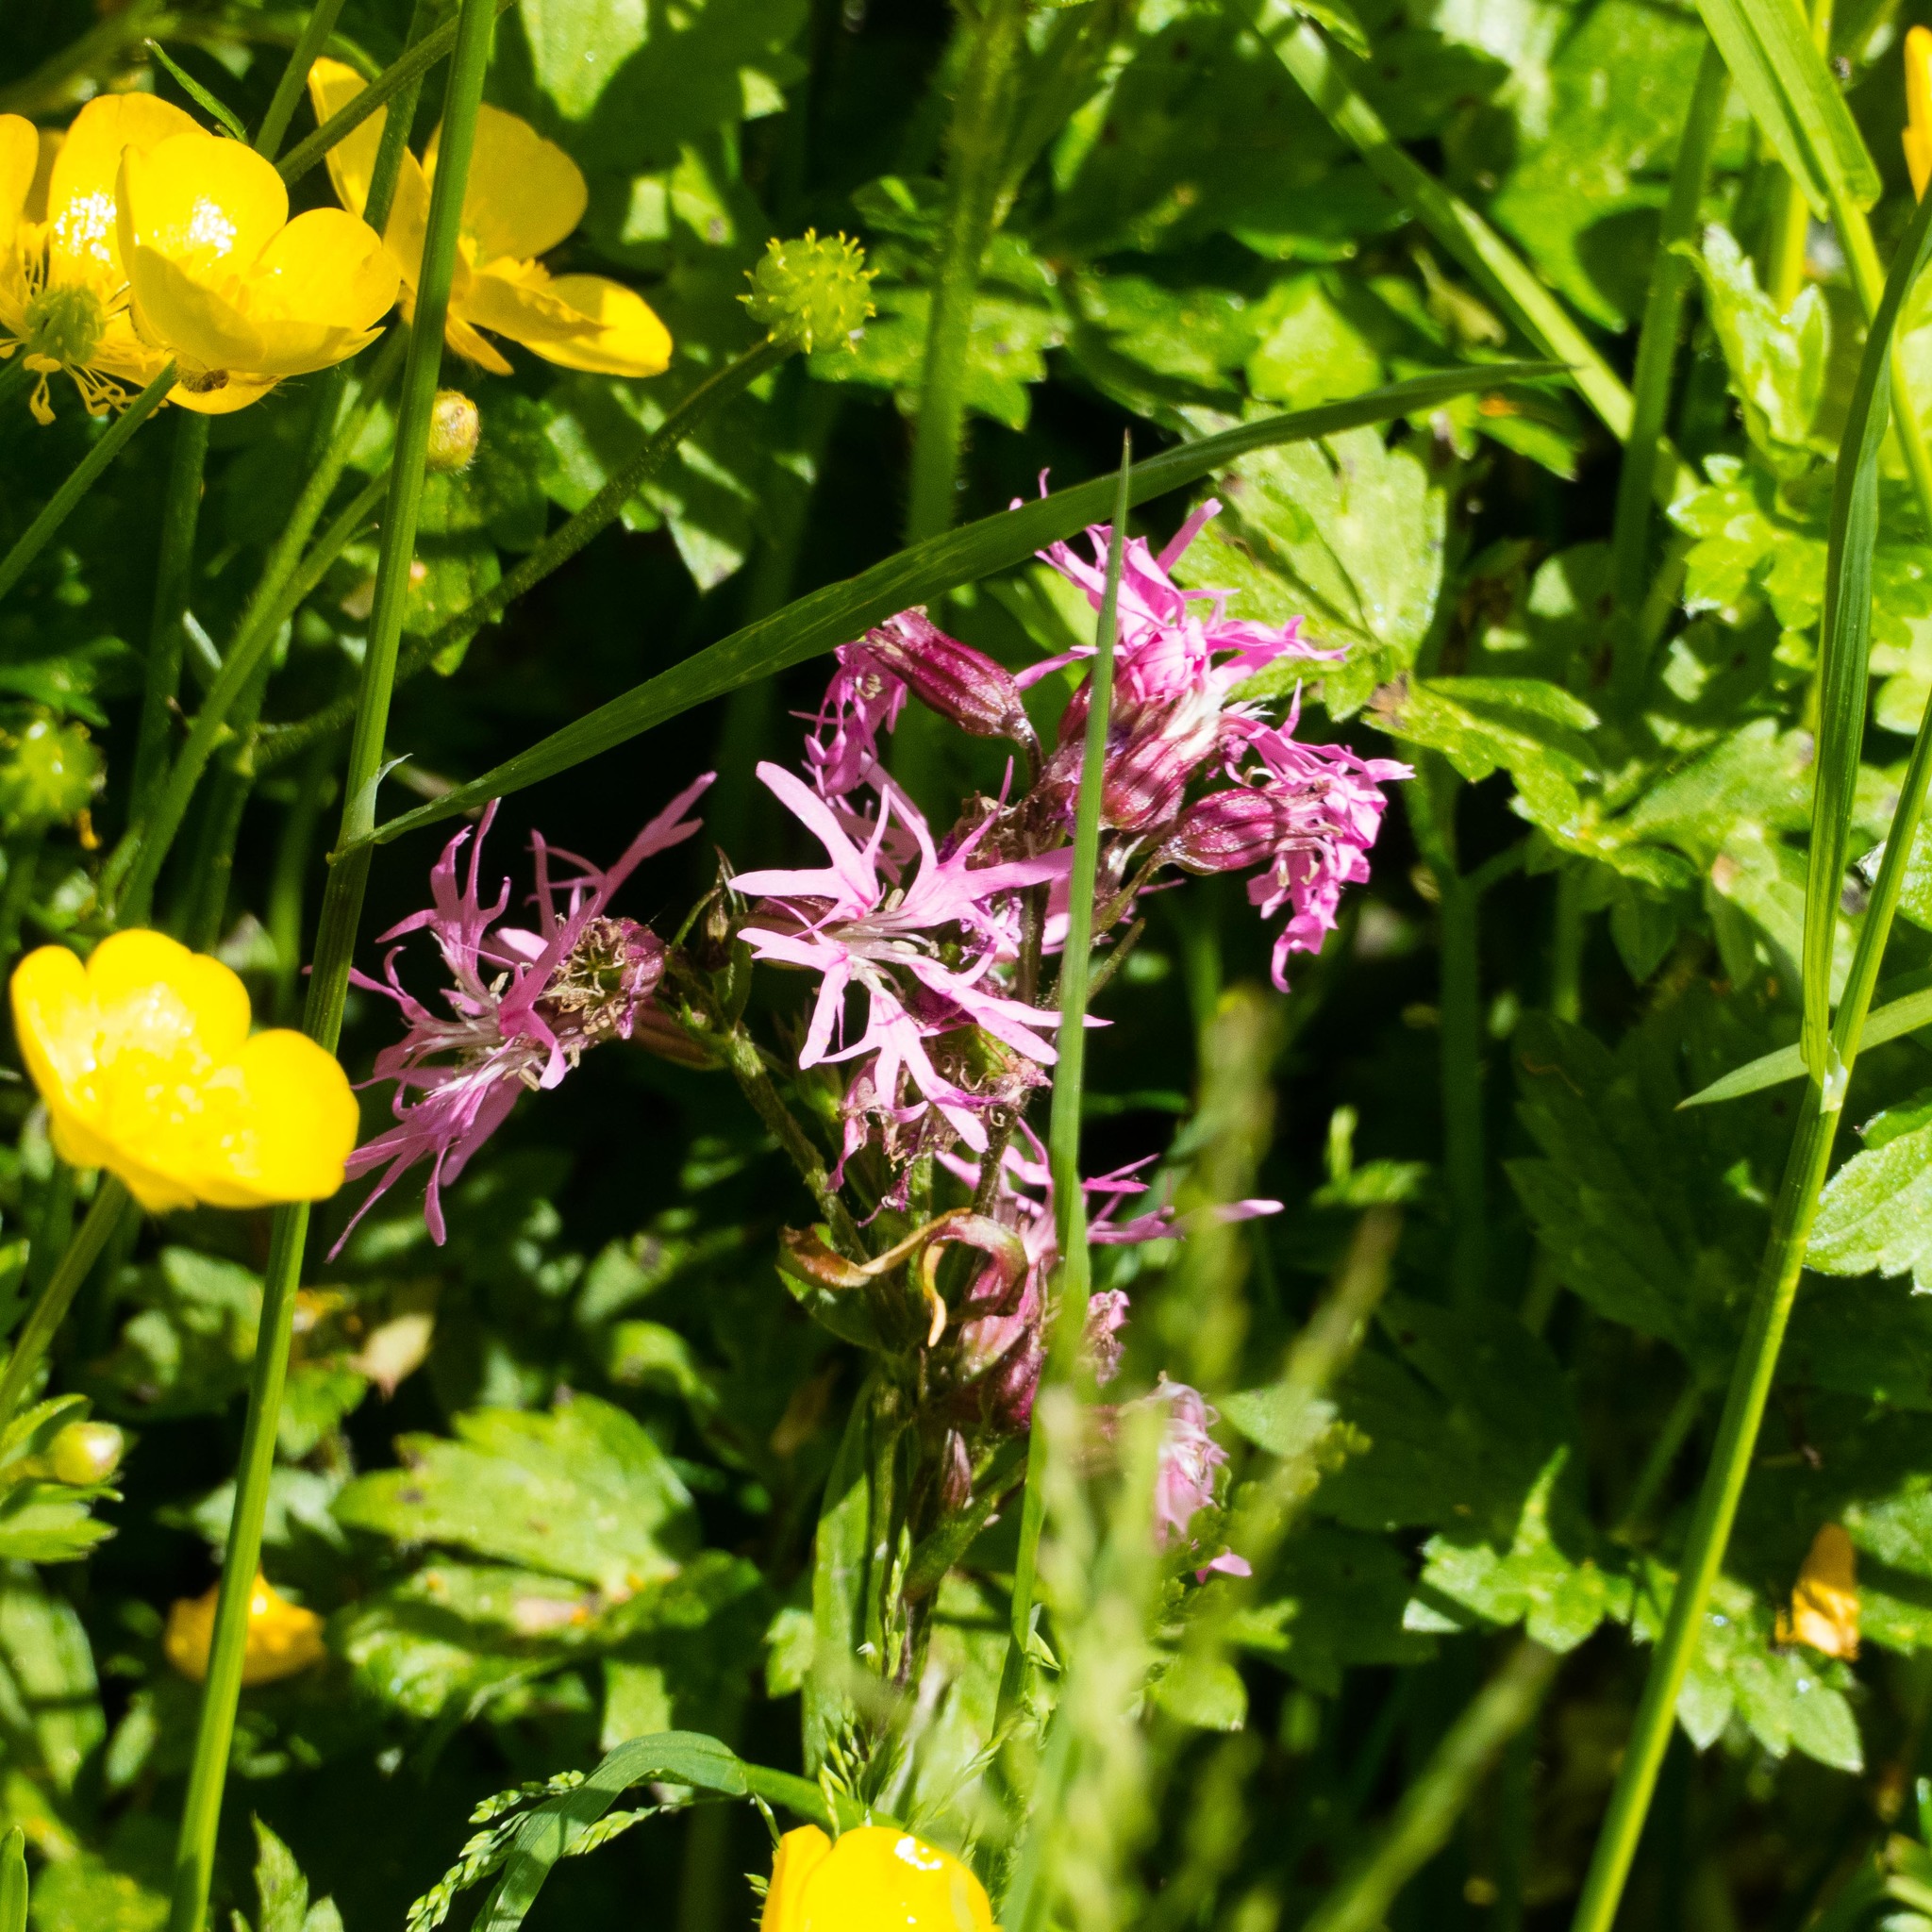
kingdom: Plantae
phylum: Tracheophyta
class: Magnoliopsida
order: Caryophyllales
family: Caryophyllaceae
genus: Silene
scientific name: Silene flos-cuculi
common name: Ragged-robin
